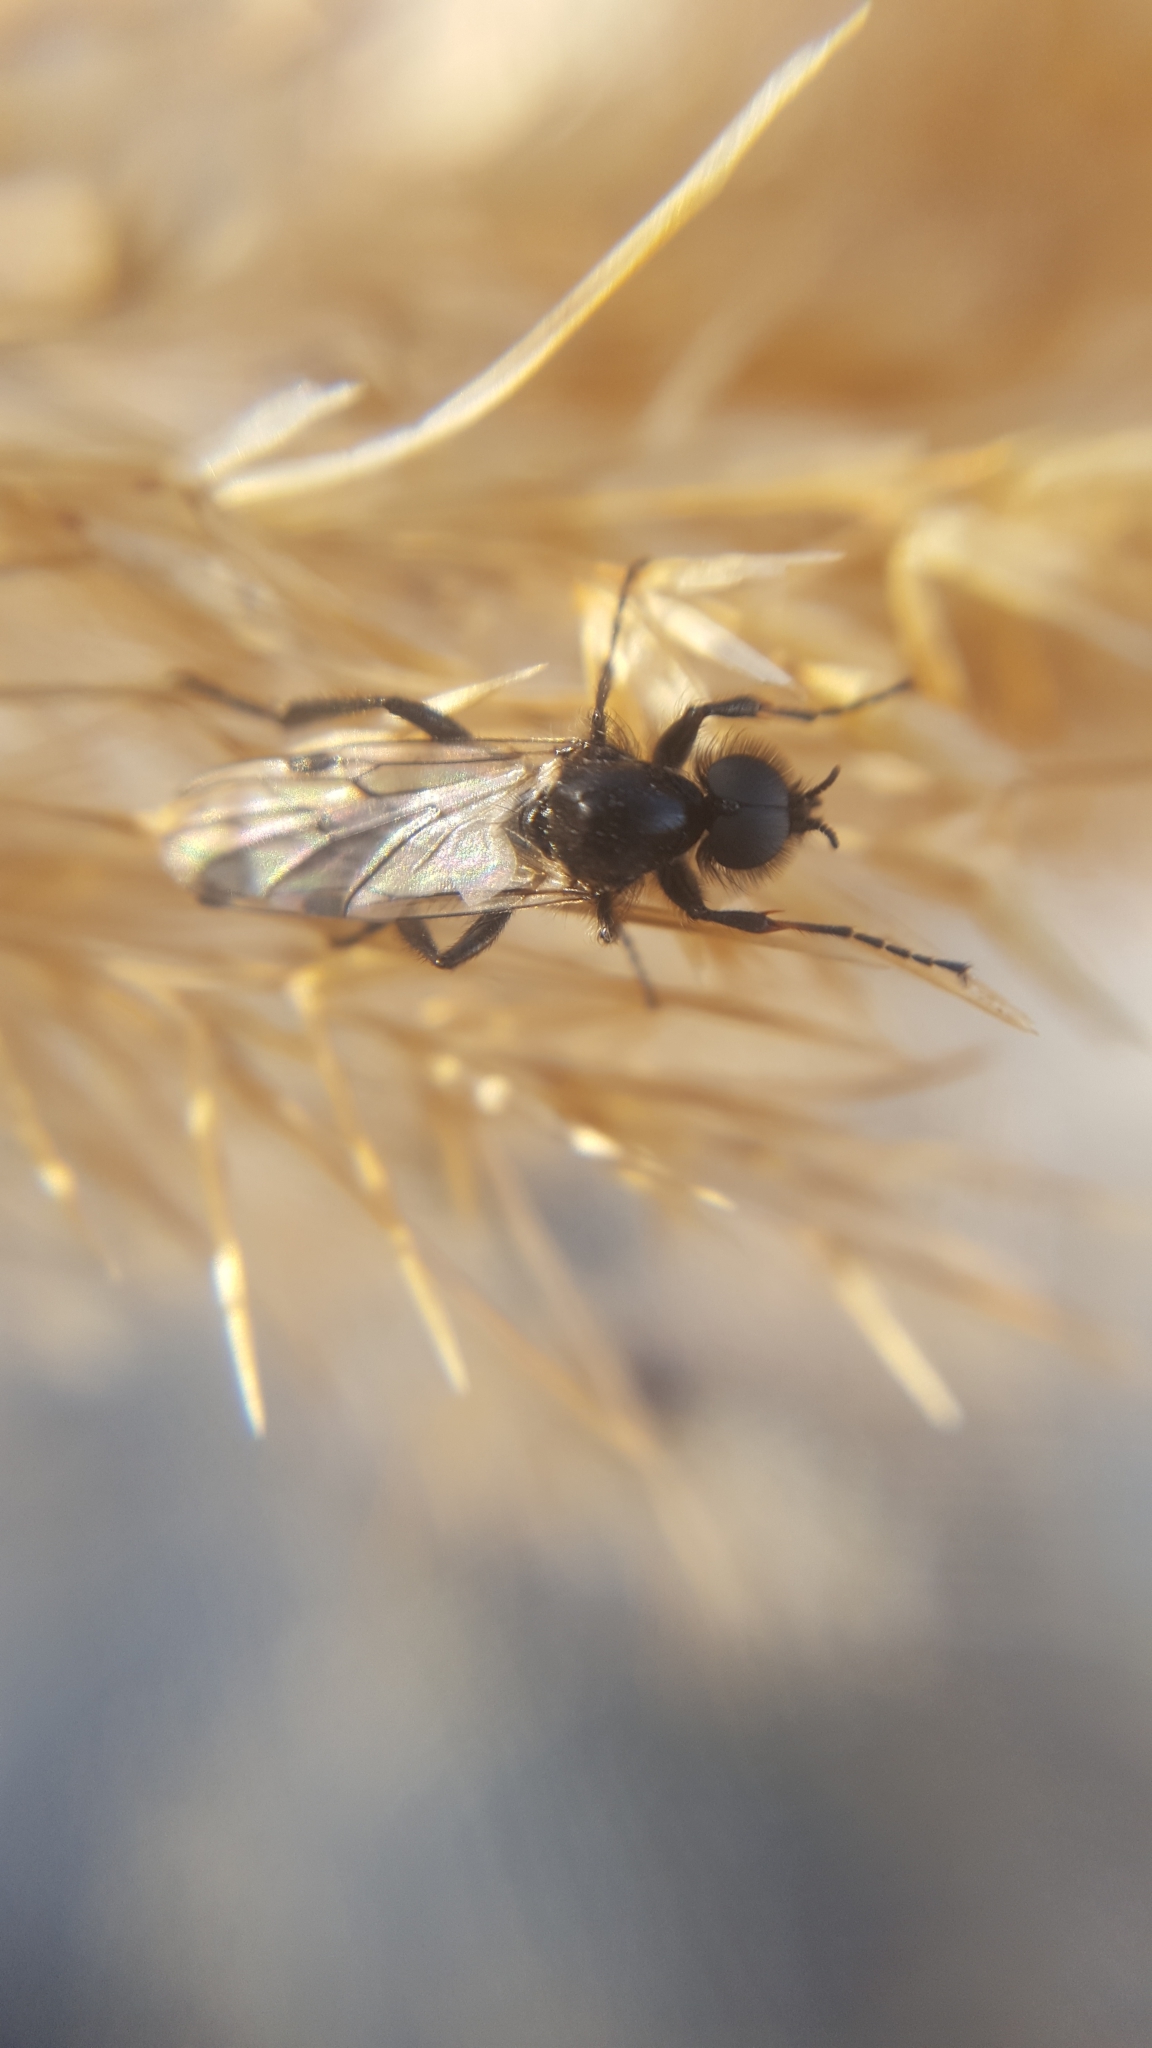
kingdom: Animalia
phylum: Arthropoda
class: Insecta
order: Diptera
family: Bibionidae
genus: Bibio
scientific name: Bibio
